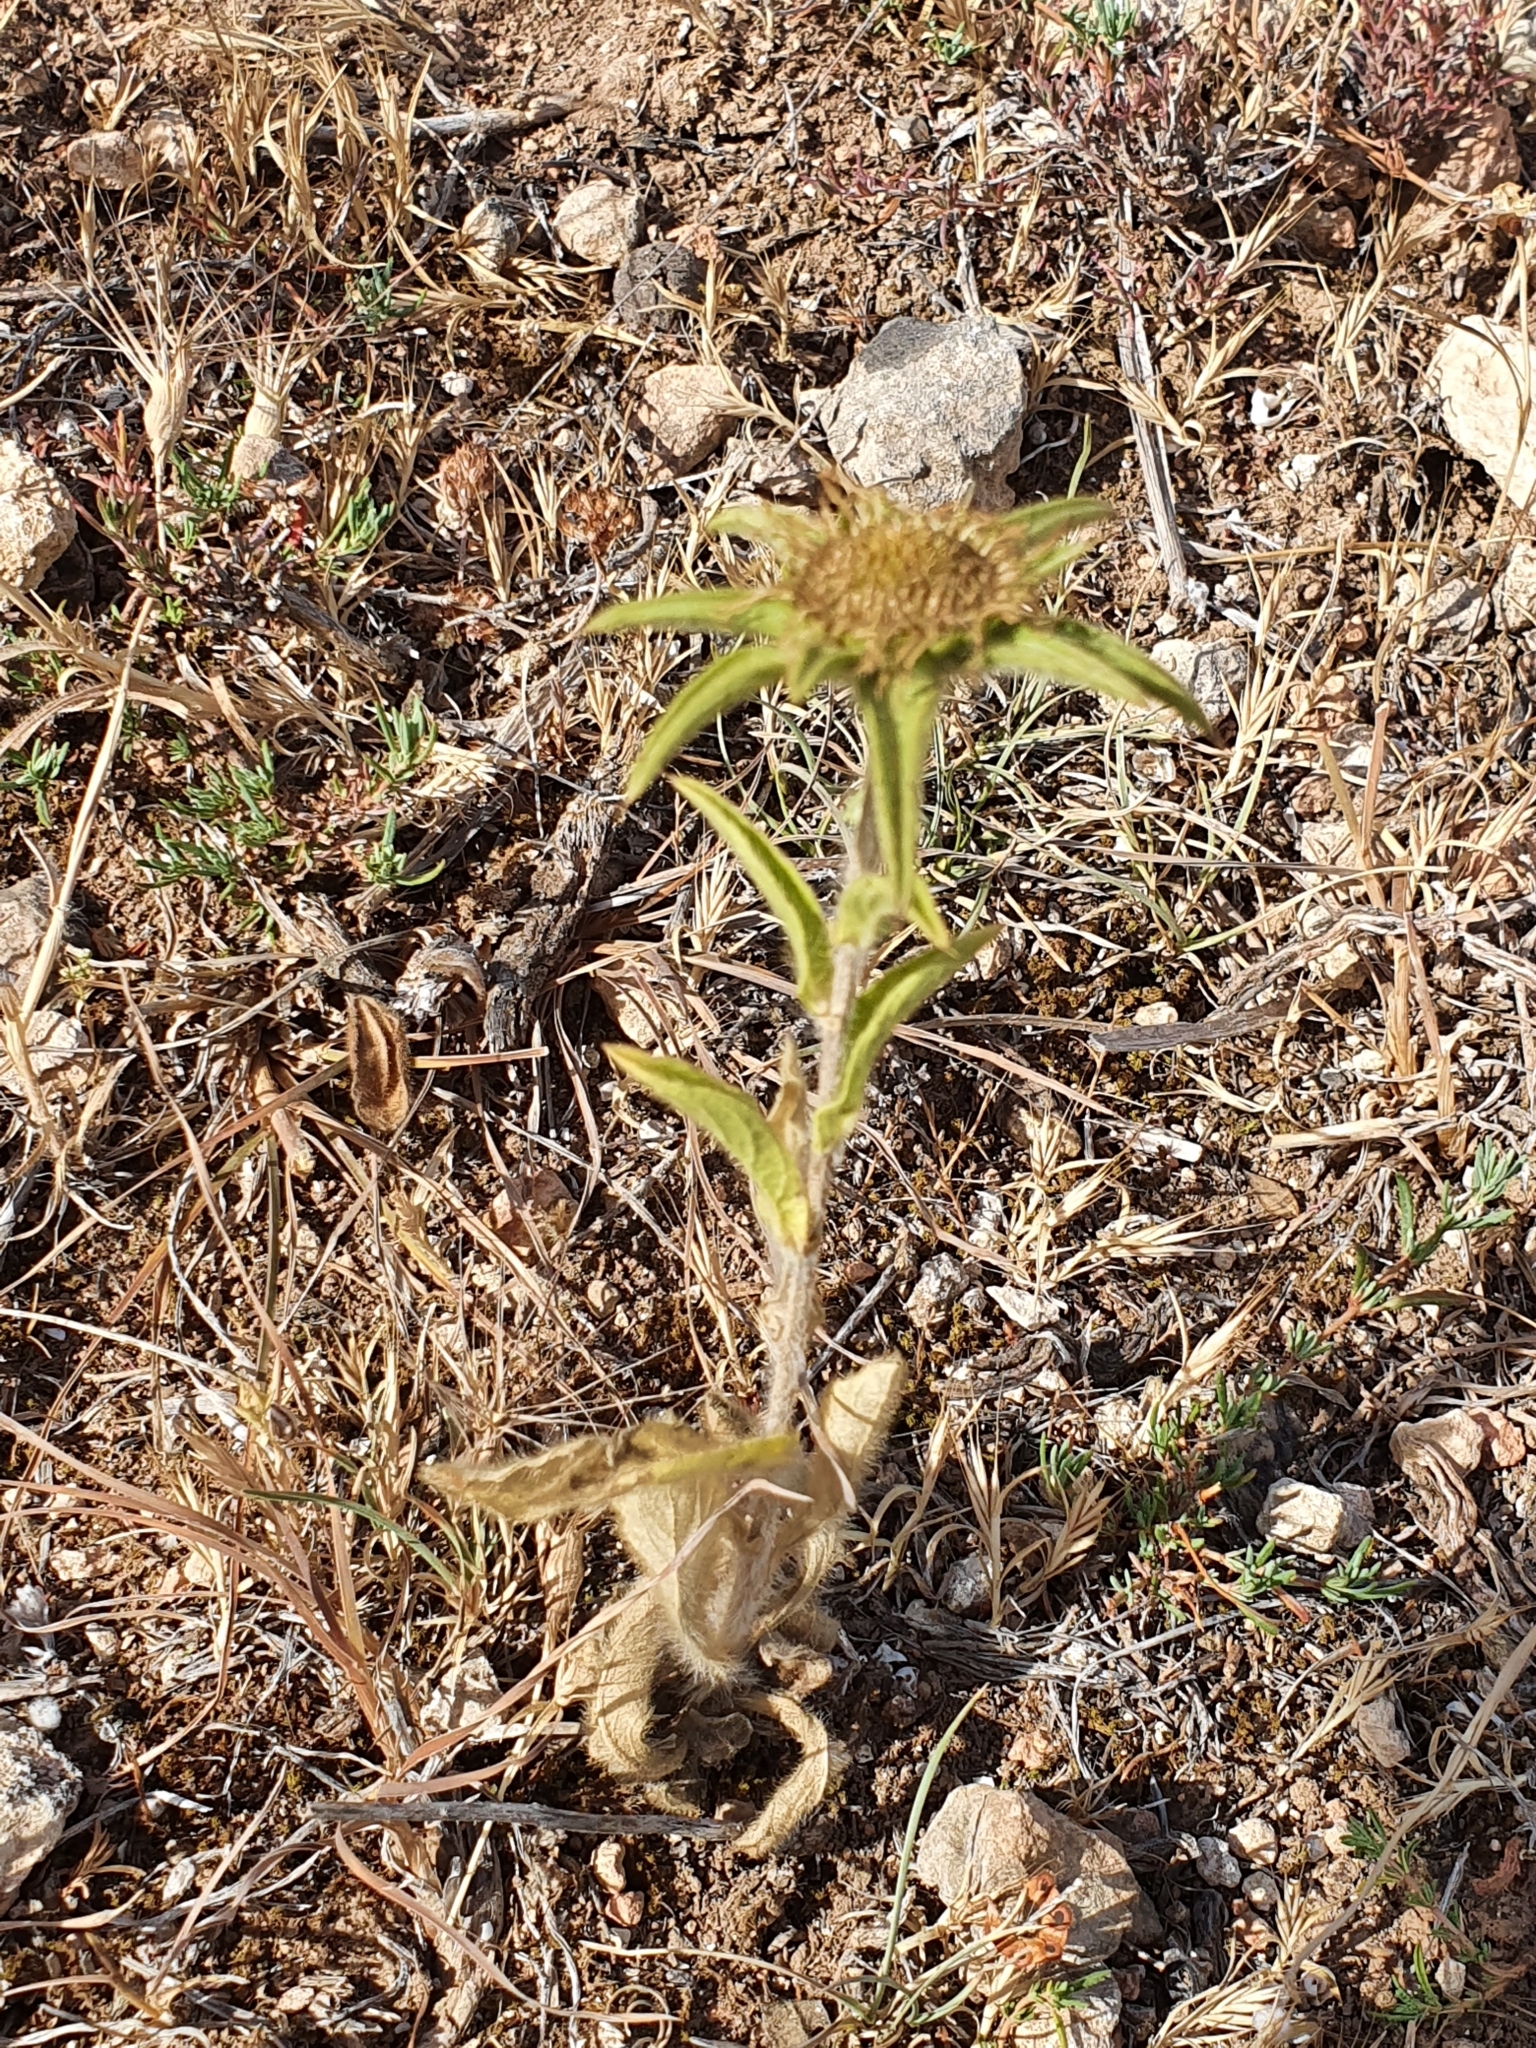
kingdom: Plantae
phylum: Tracheophyta
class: Magnoliopsida
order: Asterales
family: Asteraceae
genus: Pallenis
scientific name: Pallenis spinosa
